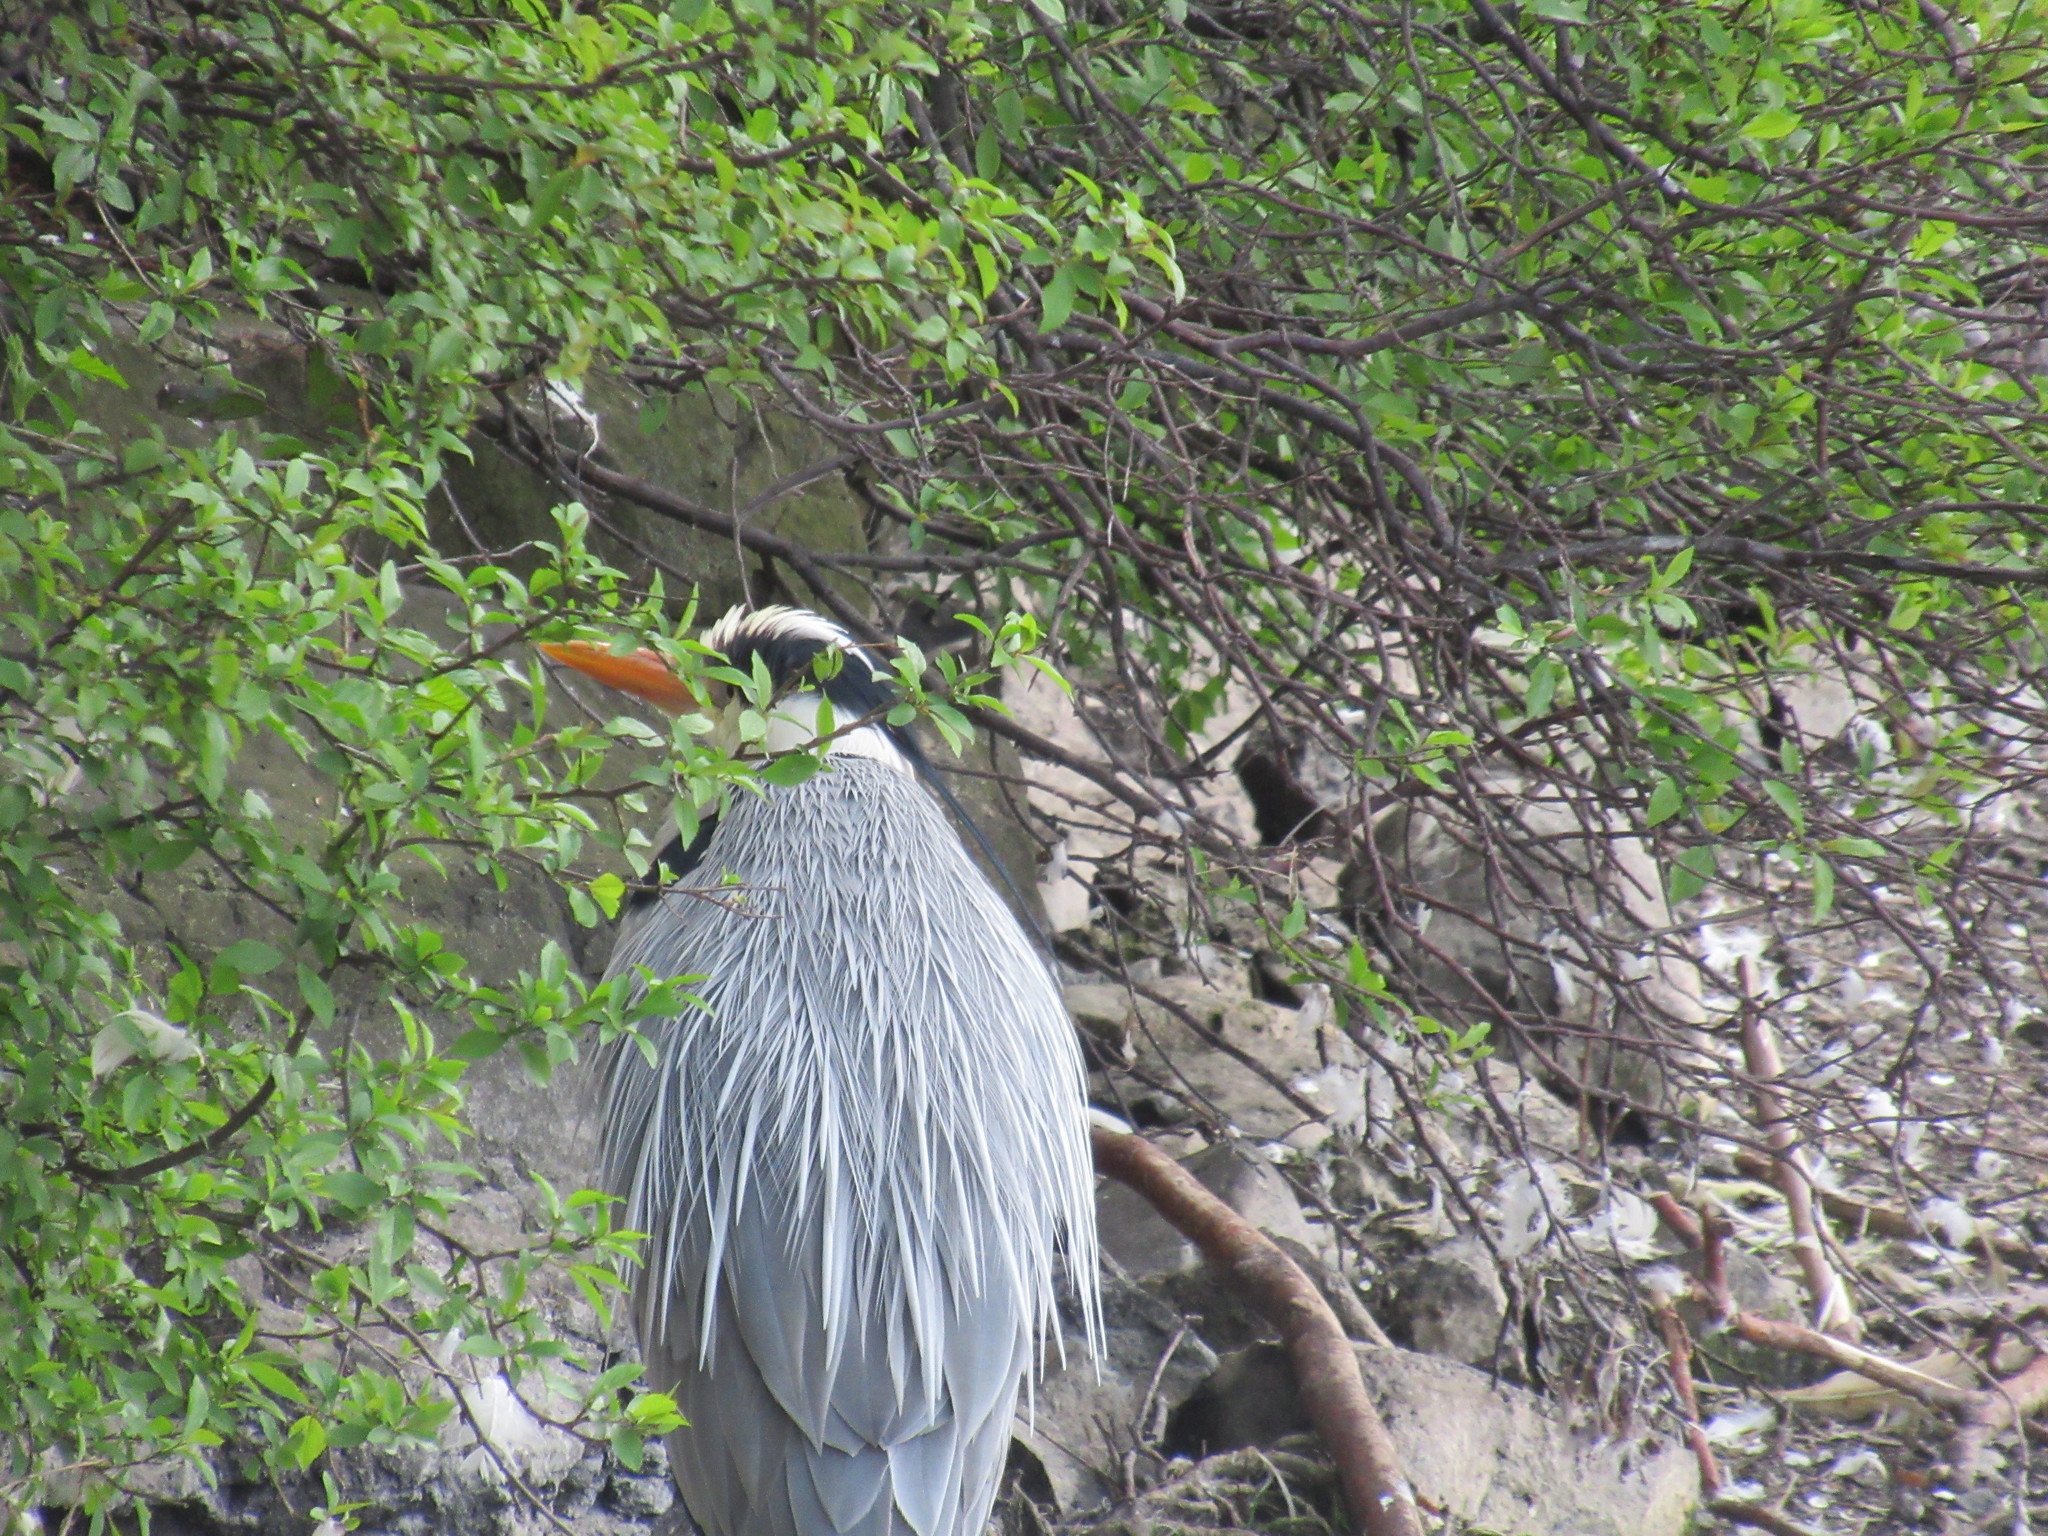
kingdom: Animalia
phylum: Chordata
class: Aves
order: Pelecaniformes
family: Ardeidae
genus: Ardea
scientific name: Ardea cinerea
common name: Grey heron
